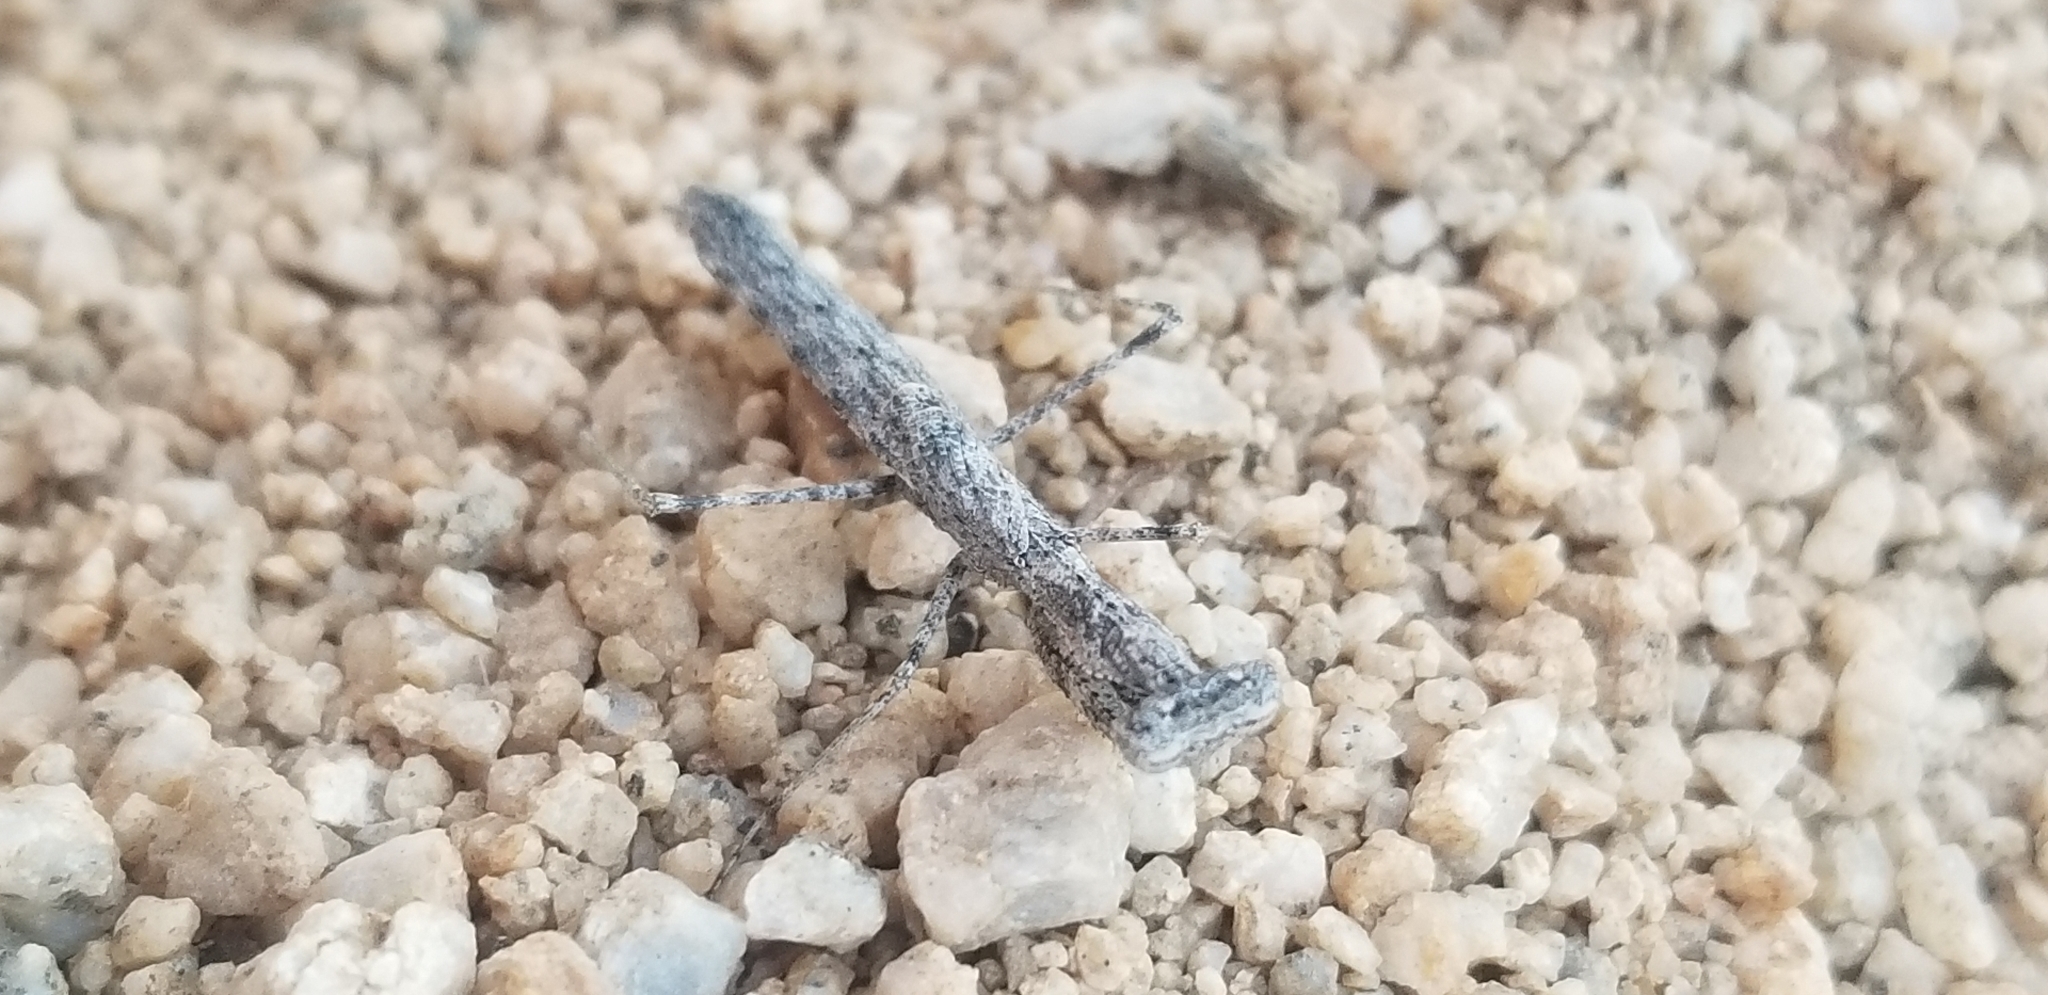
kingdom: Animalia
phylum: Arthropoda
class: Insecta
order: Mantodea
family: Amelidae
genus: Litaneutria
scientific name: Litaneutria pacifica
